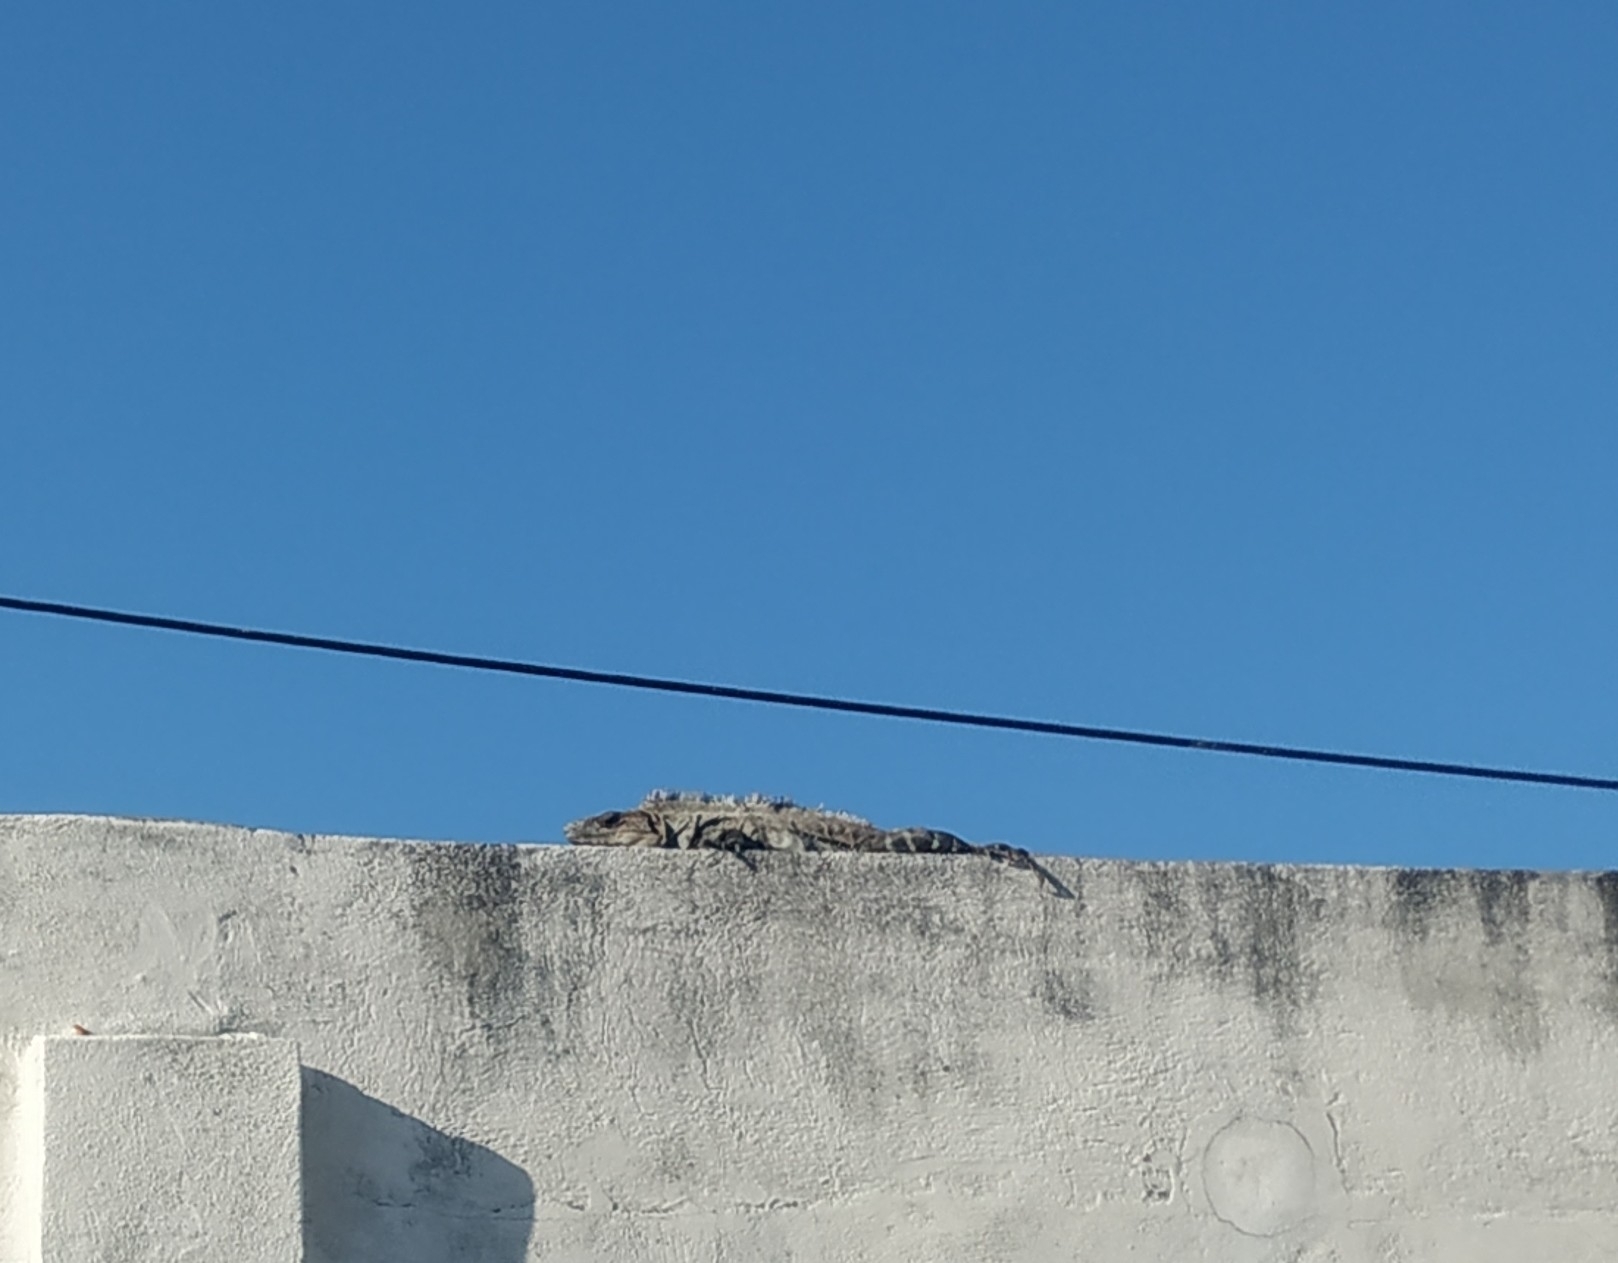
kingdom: Animalia
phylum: Chordata
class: Squamata
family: Iguanidae
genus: Ctenosaura
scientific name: Ctenosaura similis
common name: Black spiny-tailed iguana
